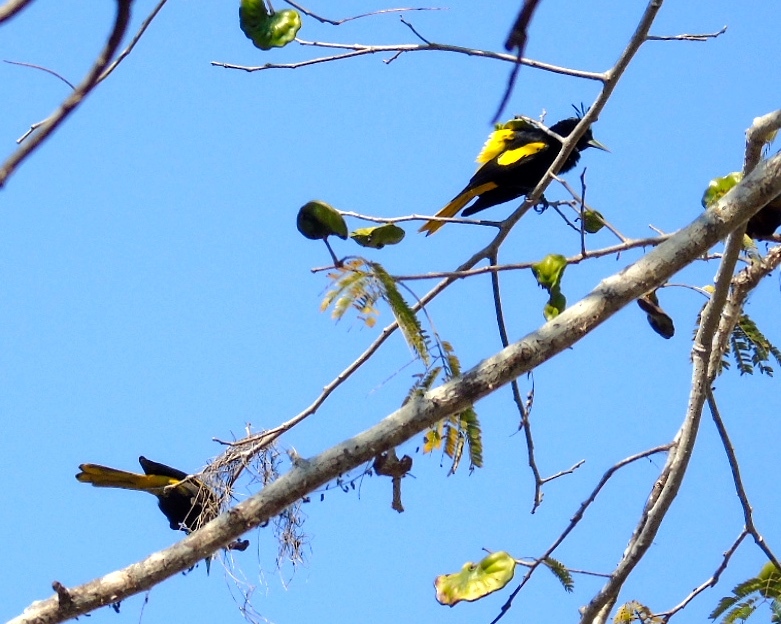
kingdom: Animalia
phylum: Chordata
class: Aves
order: Passeriformes
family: Icteridae
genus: Cacicus
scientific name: Cacicus melanicterus
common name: Yellow-winged cacique
